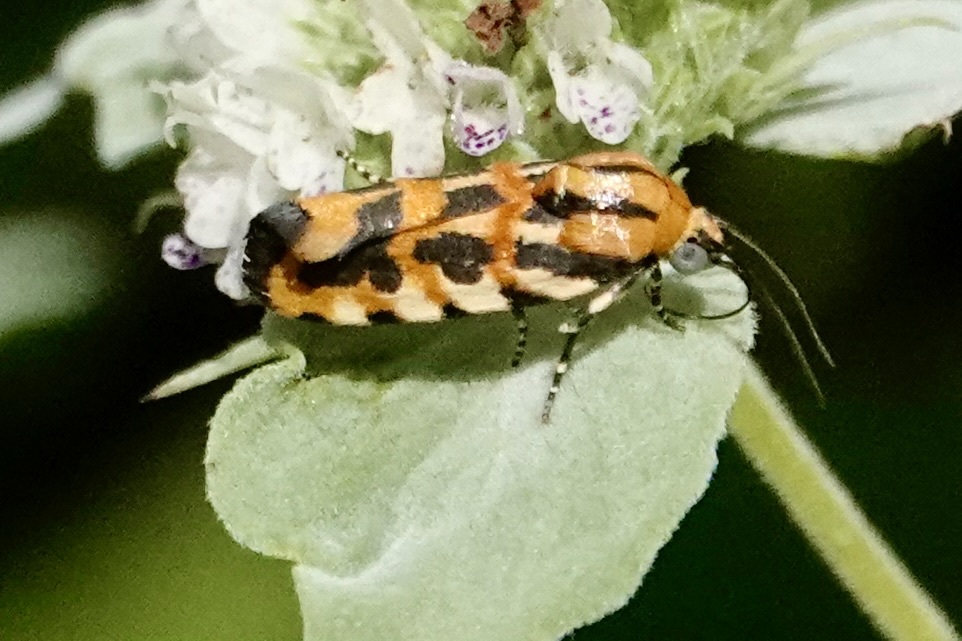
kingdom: Animalia
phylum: Arthropoda
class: Insecta
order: Lepidoptera
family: Noctuidae
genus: Acontia
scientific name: Acontia leo
